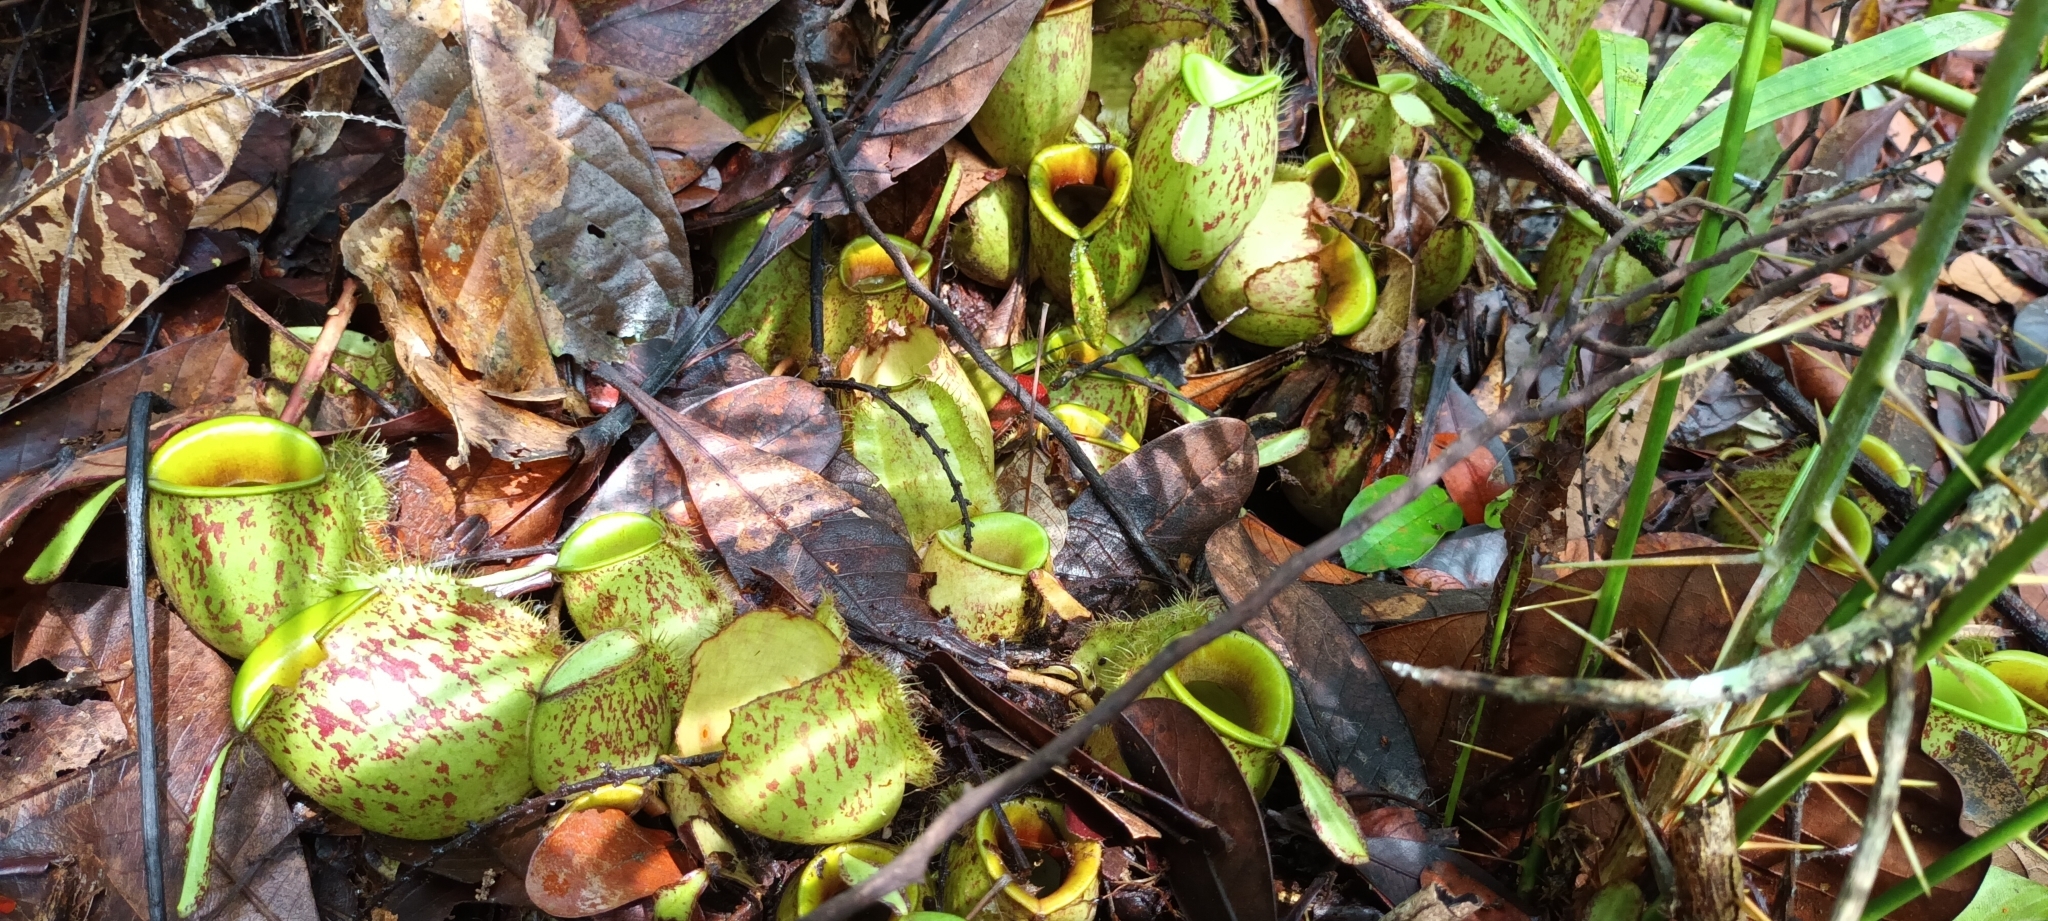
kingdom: Plantae
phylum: Tracheophyta
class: Magnoliopsida
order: Caryophyllales
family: Nepenthaceae
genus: Nepenthes
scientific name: Nepenthes ampullaria
